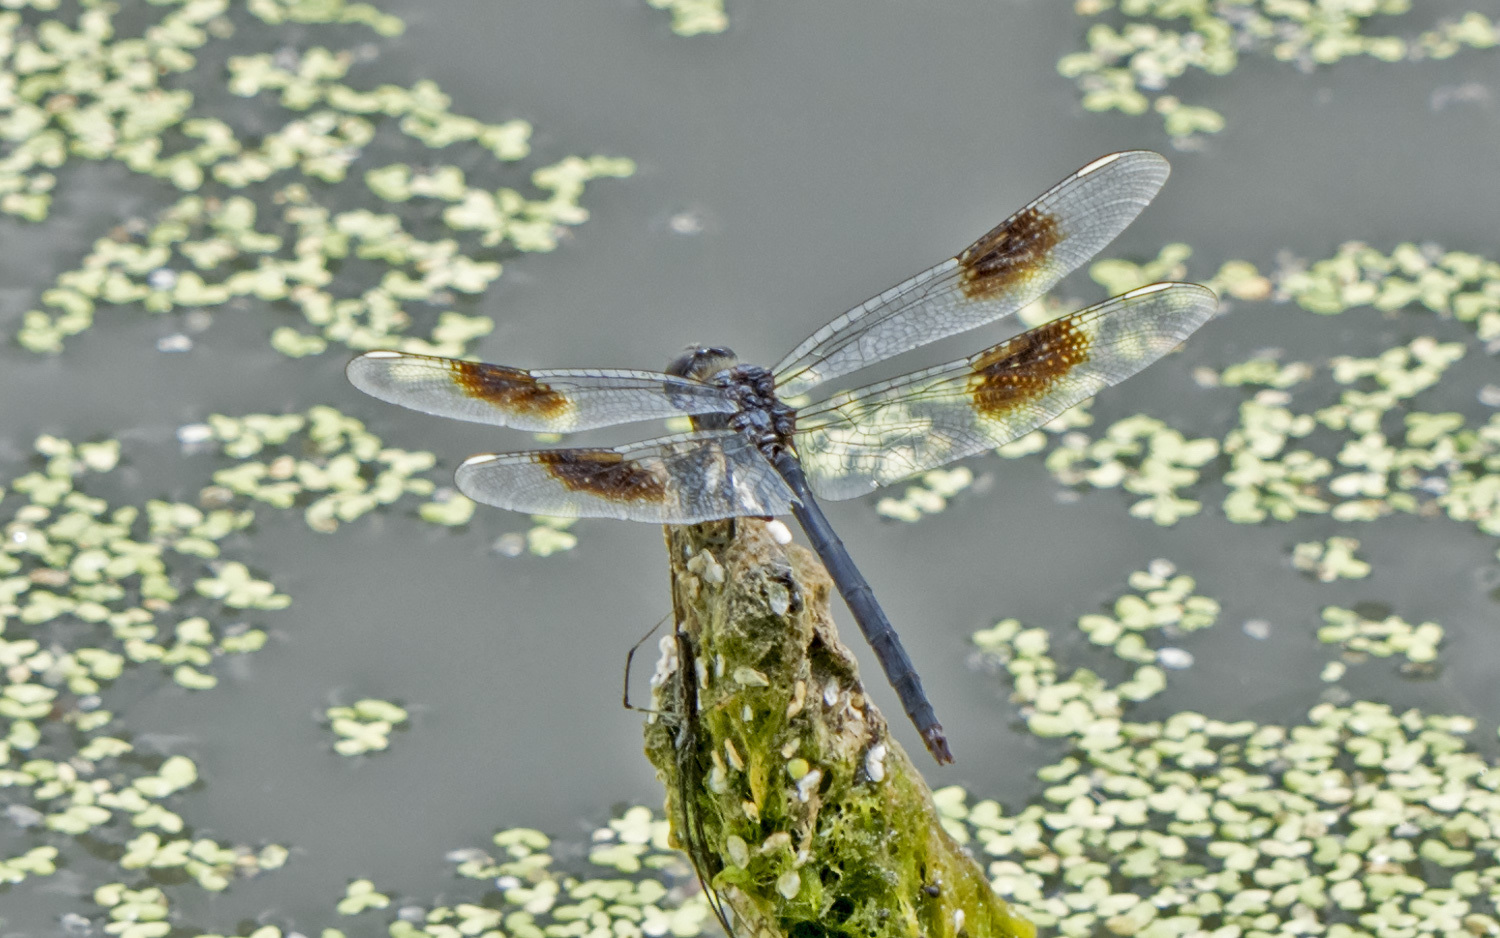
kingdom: Animalia
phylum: Arthropoda
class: Insecta
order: Odonata
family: Libellulidae
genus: Brachymesia
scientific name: Brachymesia gravida
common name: Four-spotted pennant
